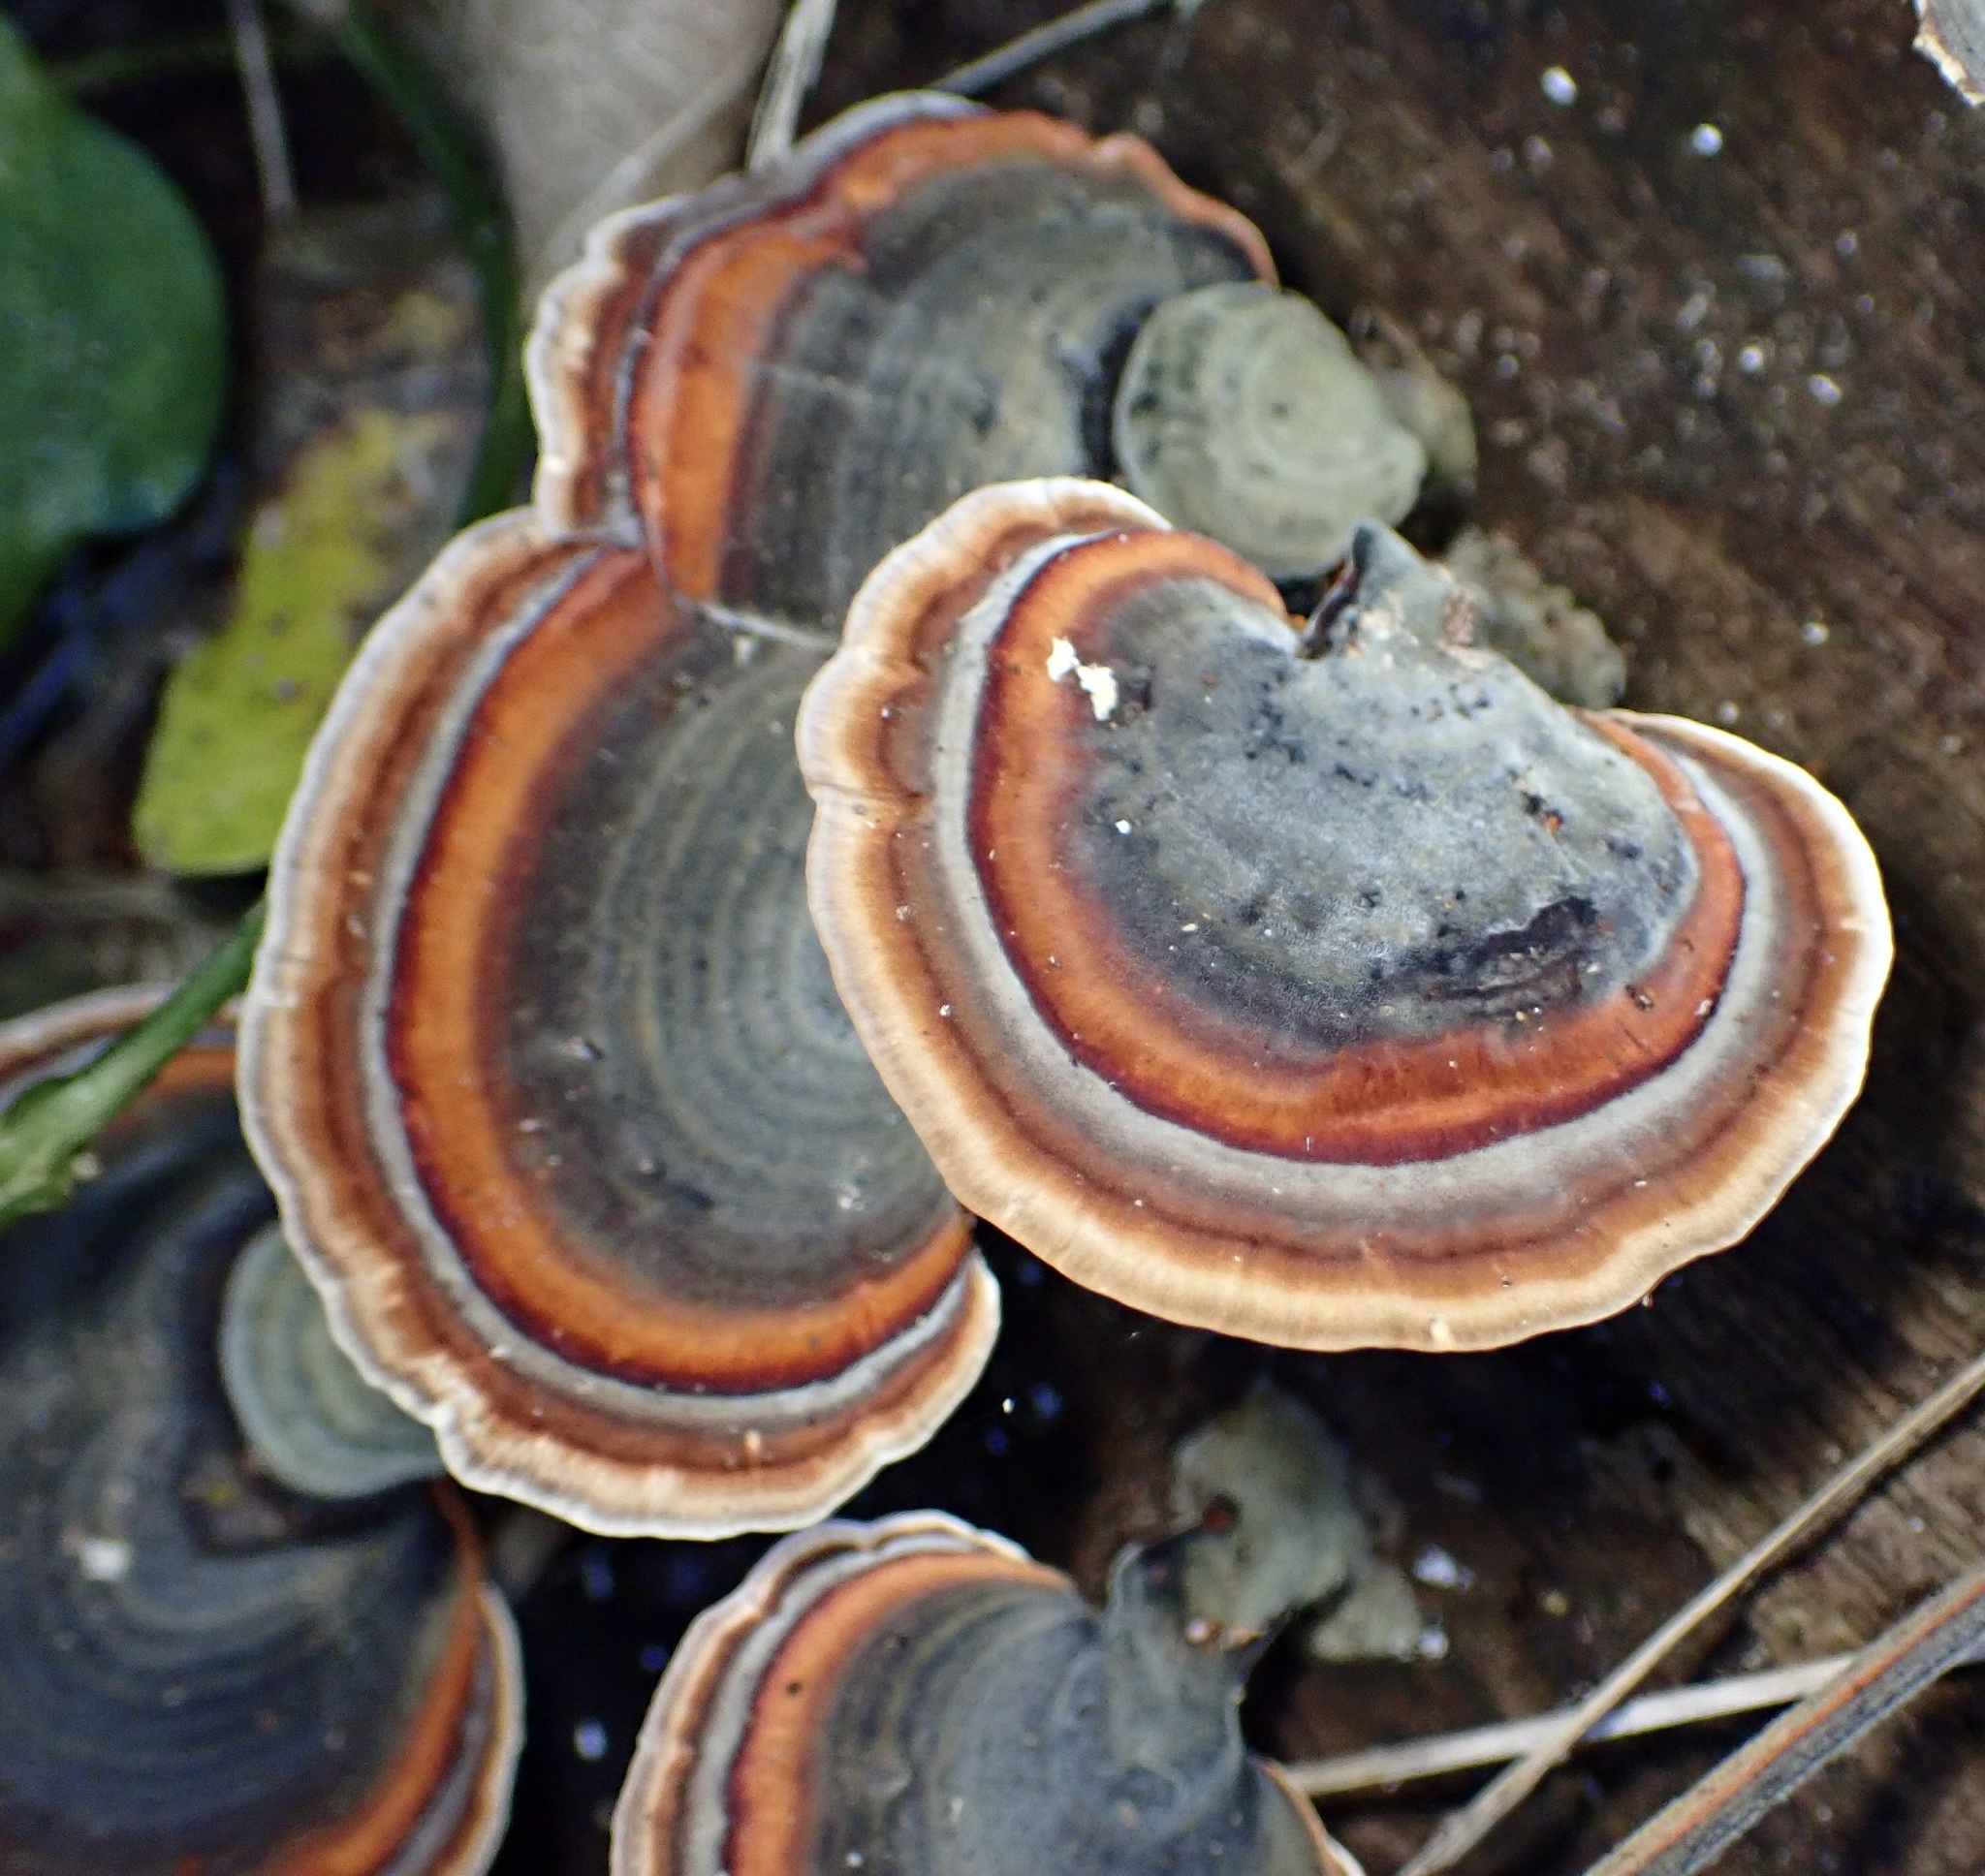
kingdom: Fungi
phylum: Basidiomycota
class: Agaricomycetes
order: Polyporales
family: Polyporaceae
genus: Microporus
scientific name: Microporus affinis
